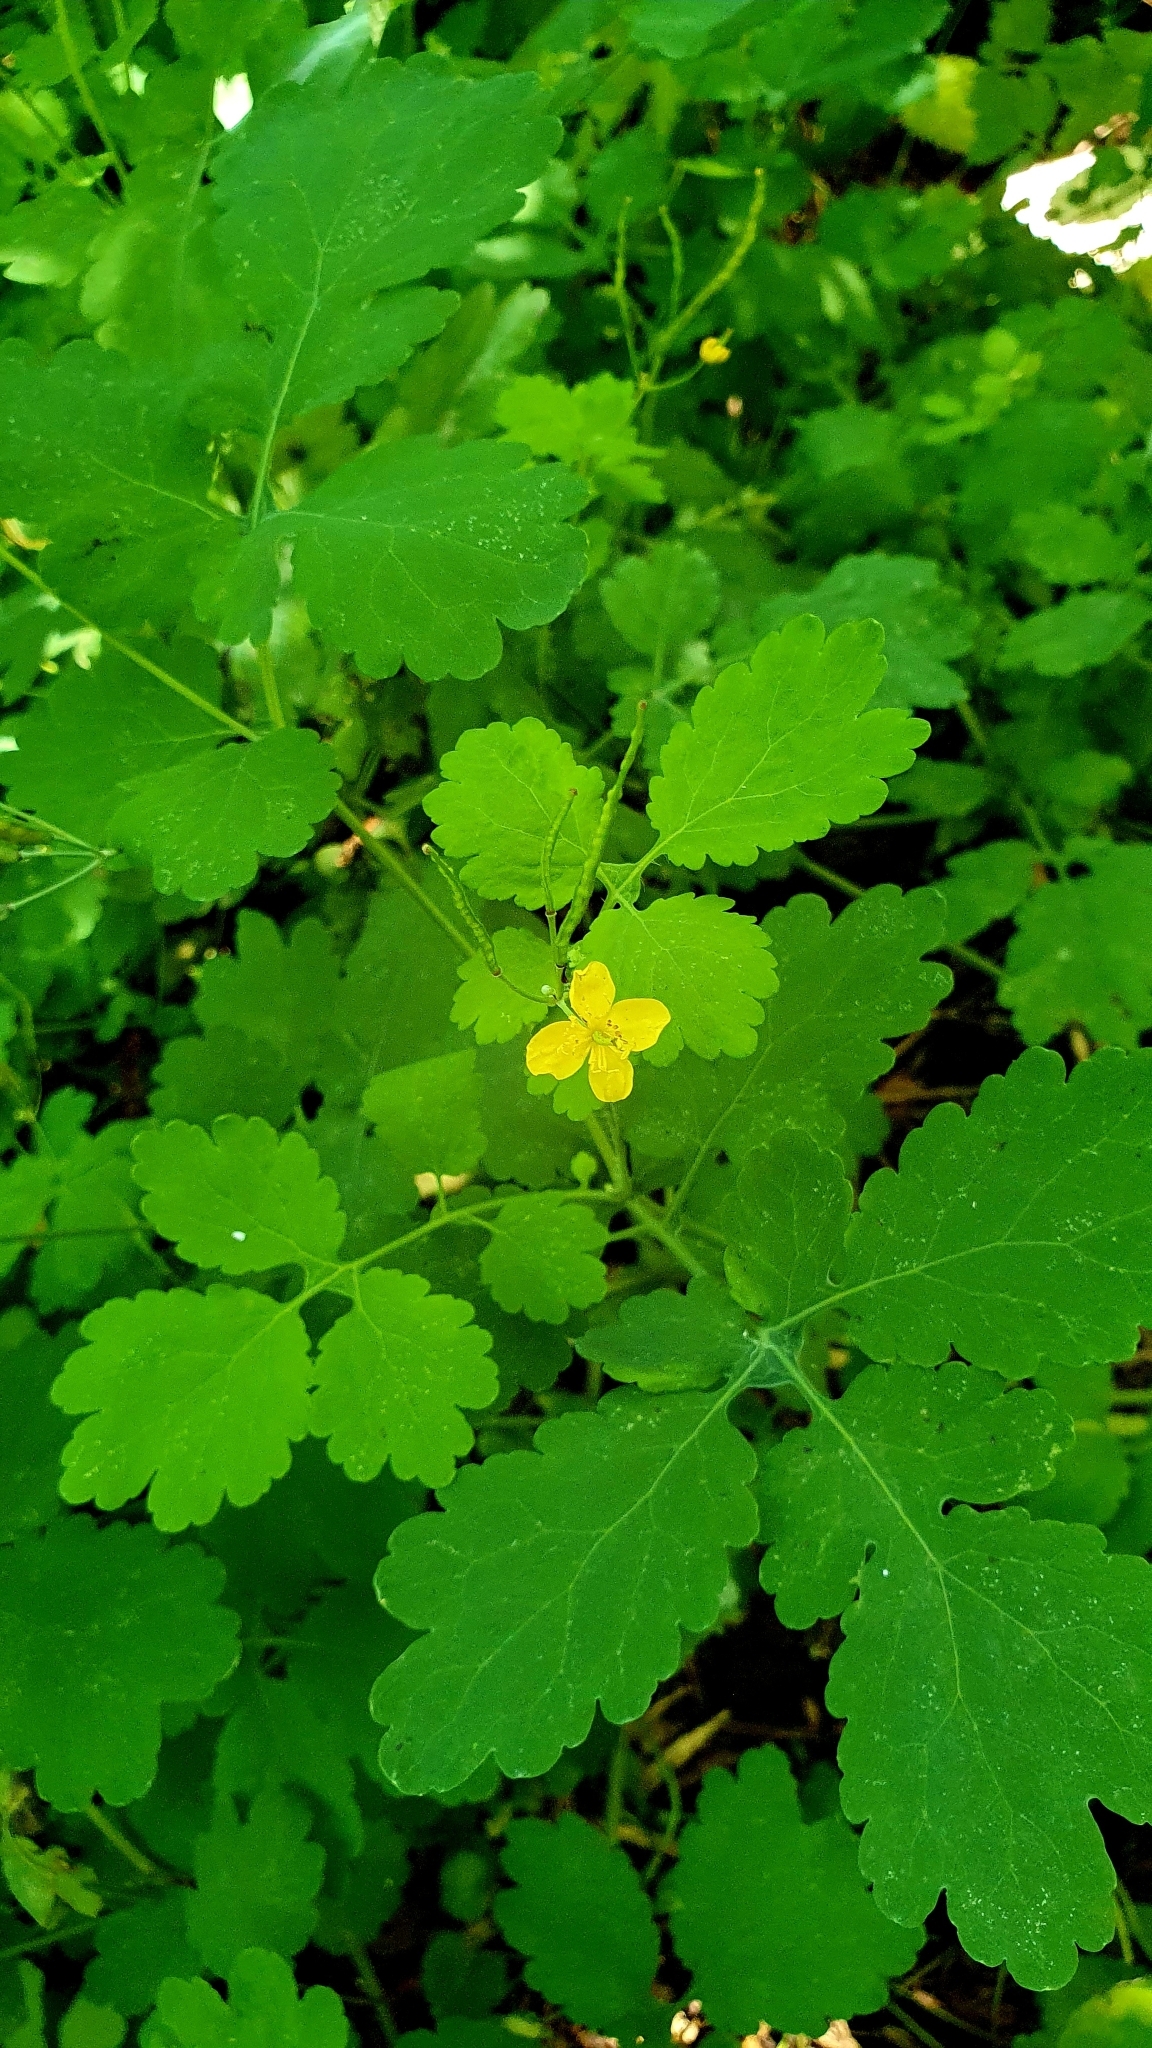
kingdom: Plantae
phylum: Tracheophyta
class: Magnoliopsida
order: Ranunculales
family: Papaveraceae
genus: Chelidonium
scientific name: Chelidonium majus
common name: Greater celandine
